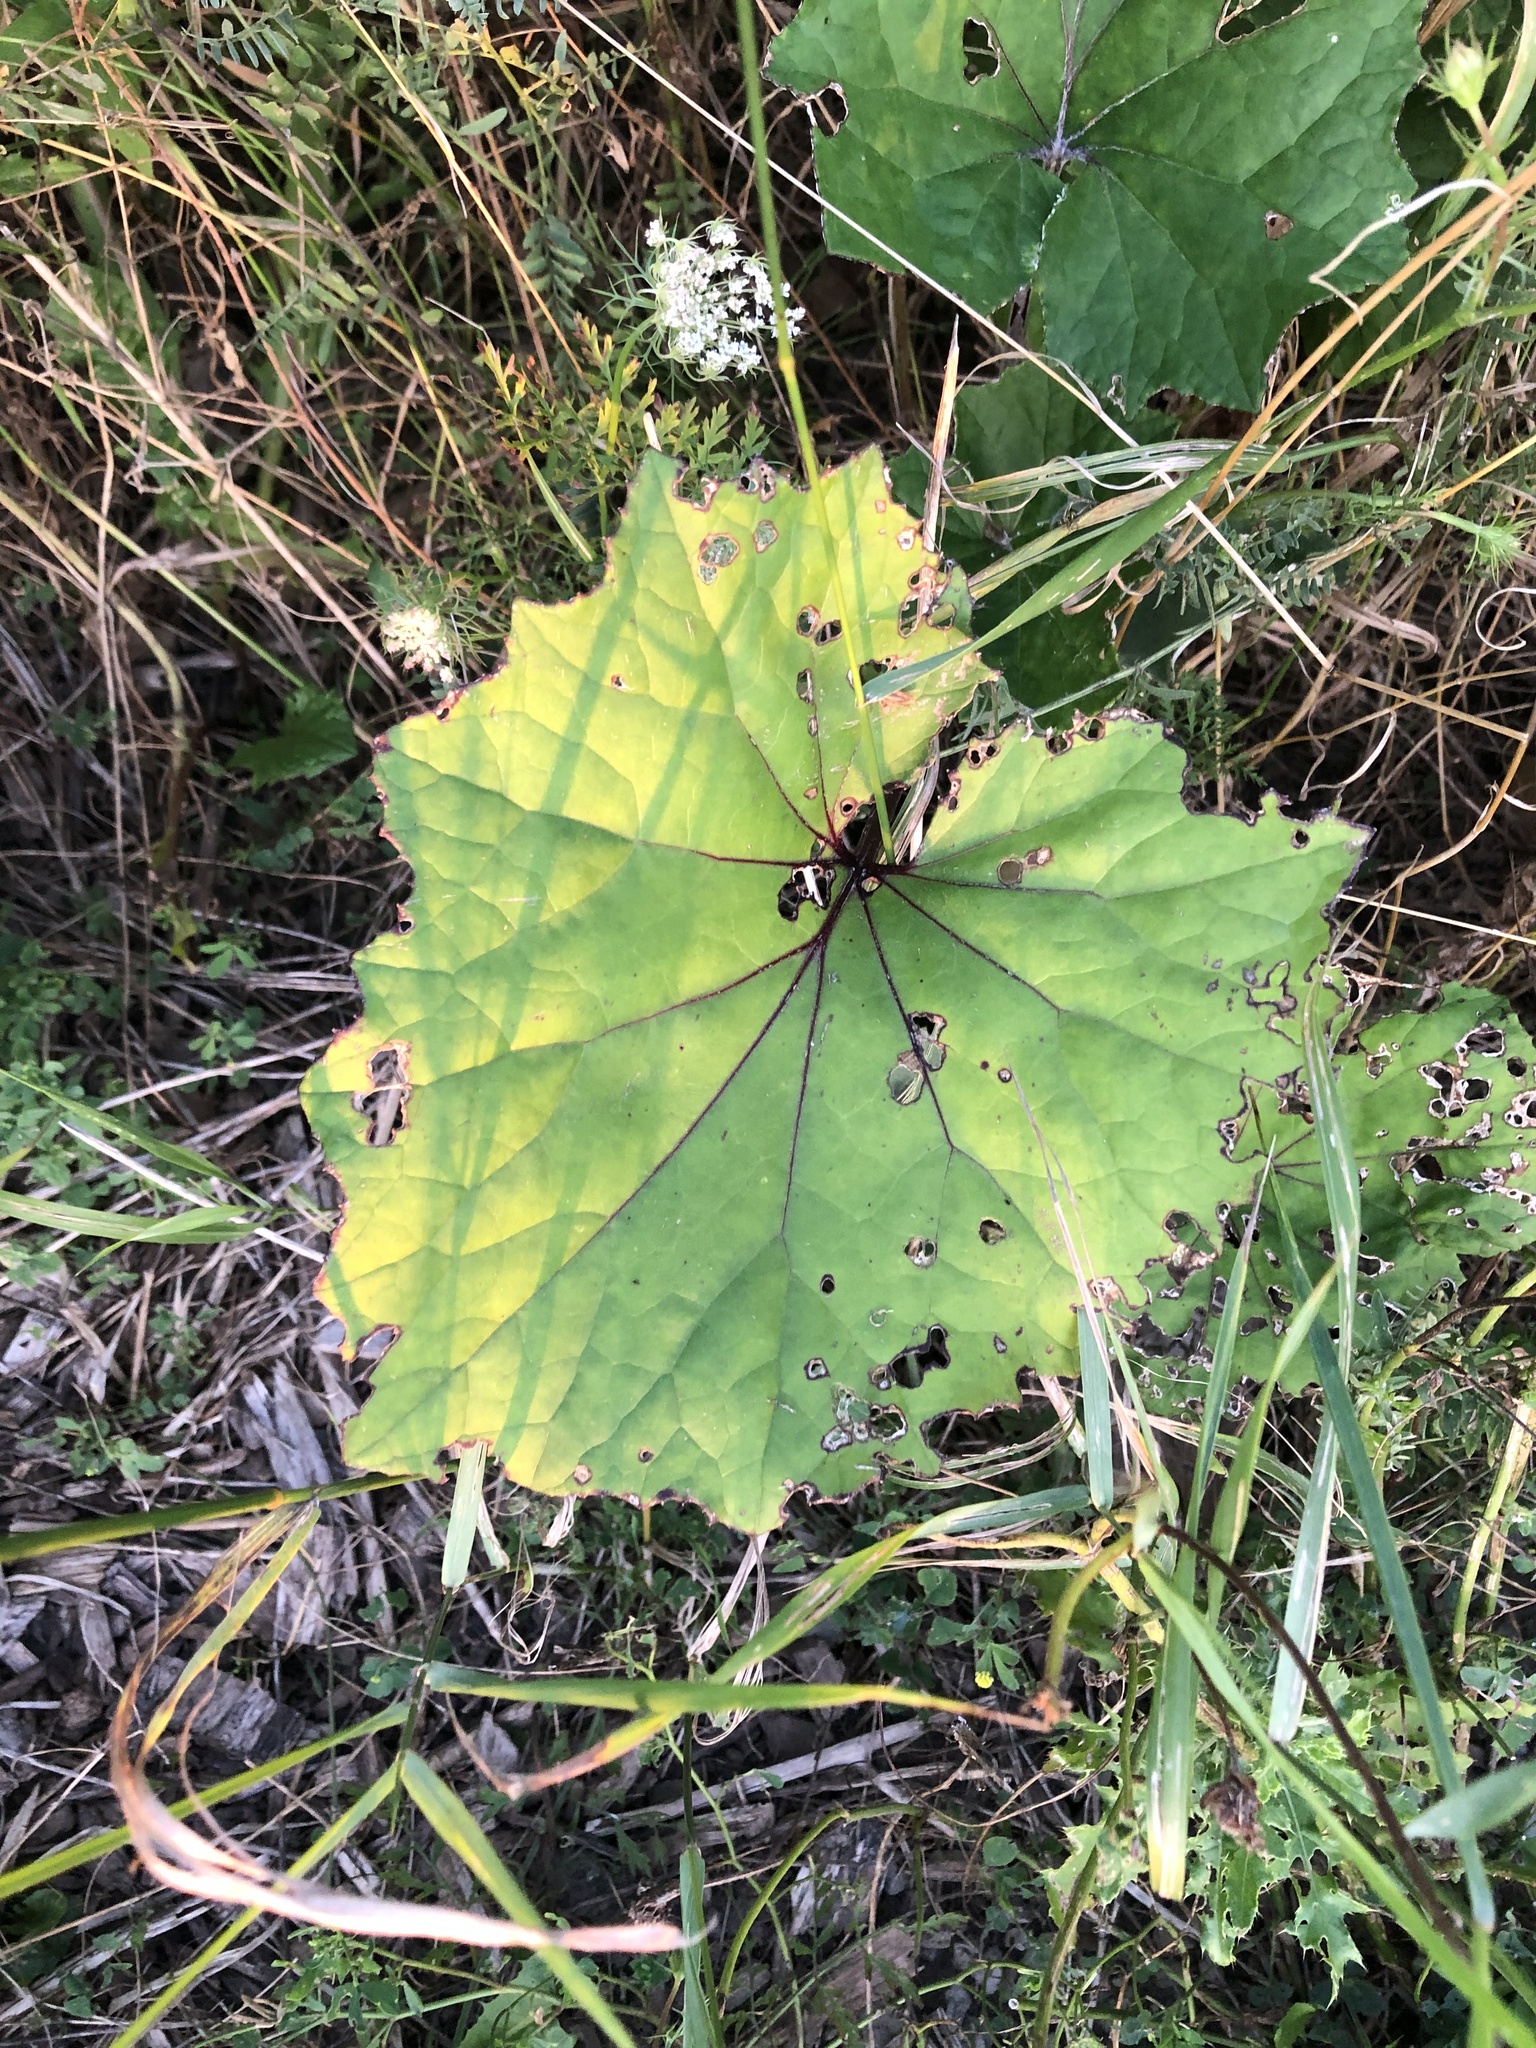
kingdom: Plantae
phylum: Tracheophyta
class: Magnoliopsida
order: Asterales
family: Asteraceae
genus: Tussilago
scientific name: Tussilago farfara
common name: Coltsfoot
